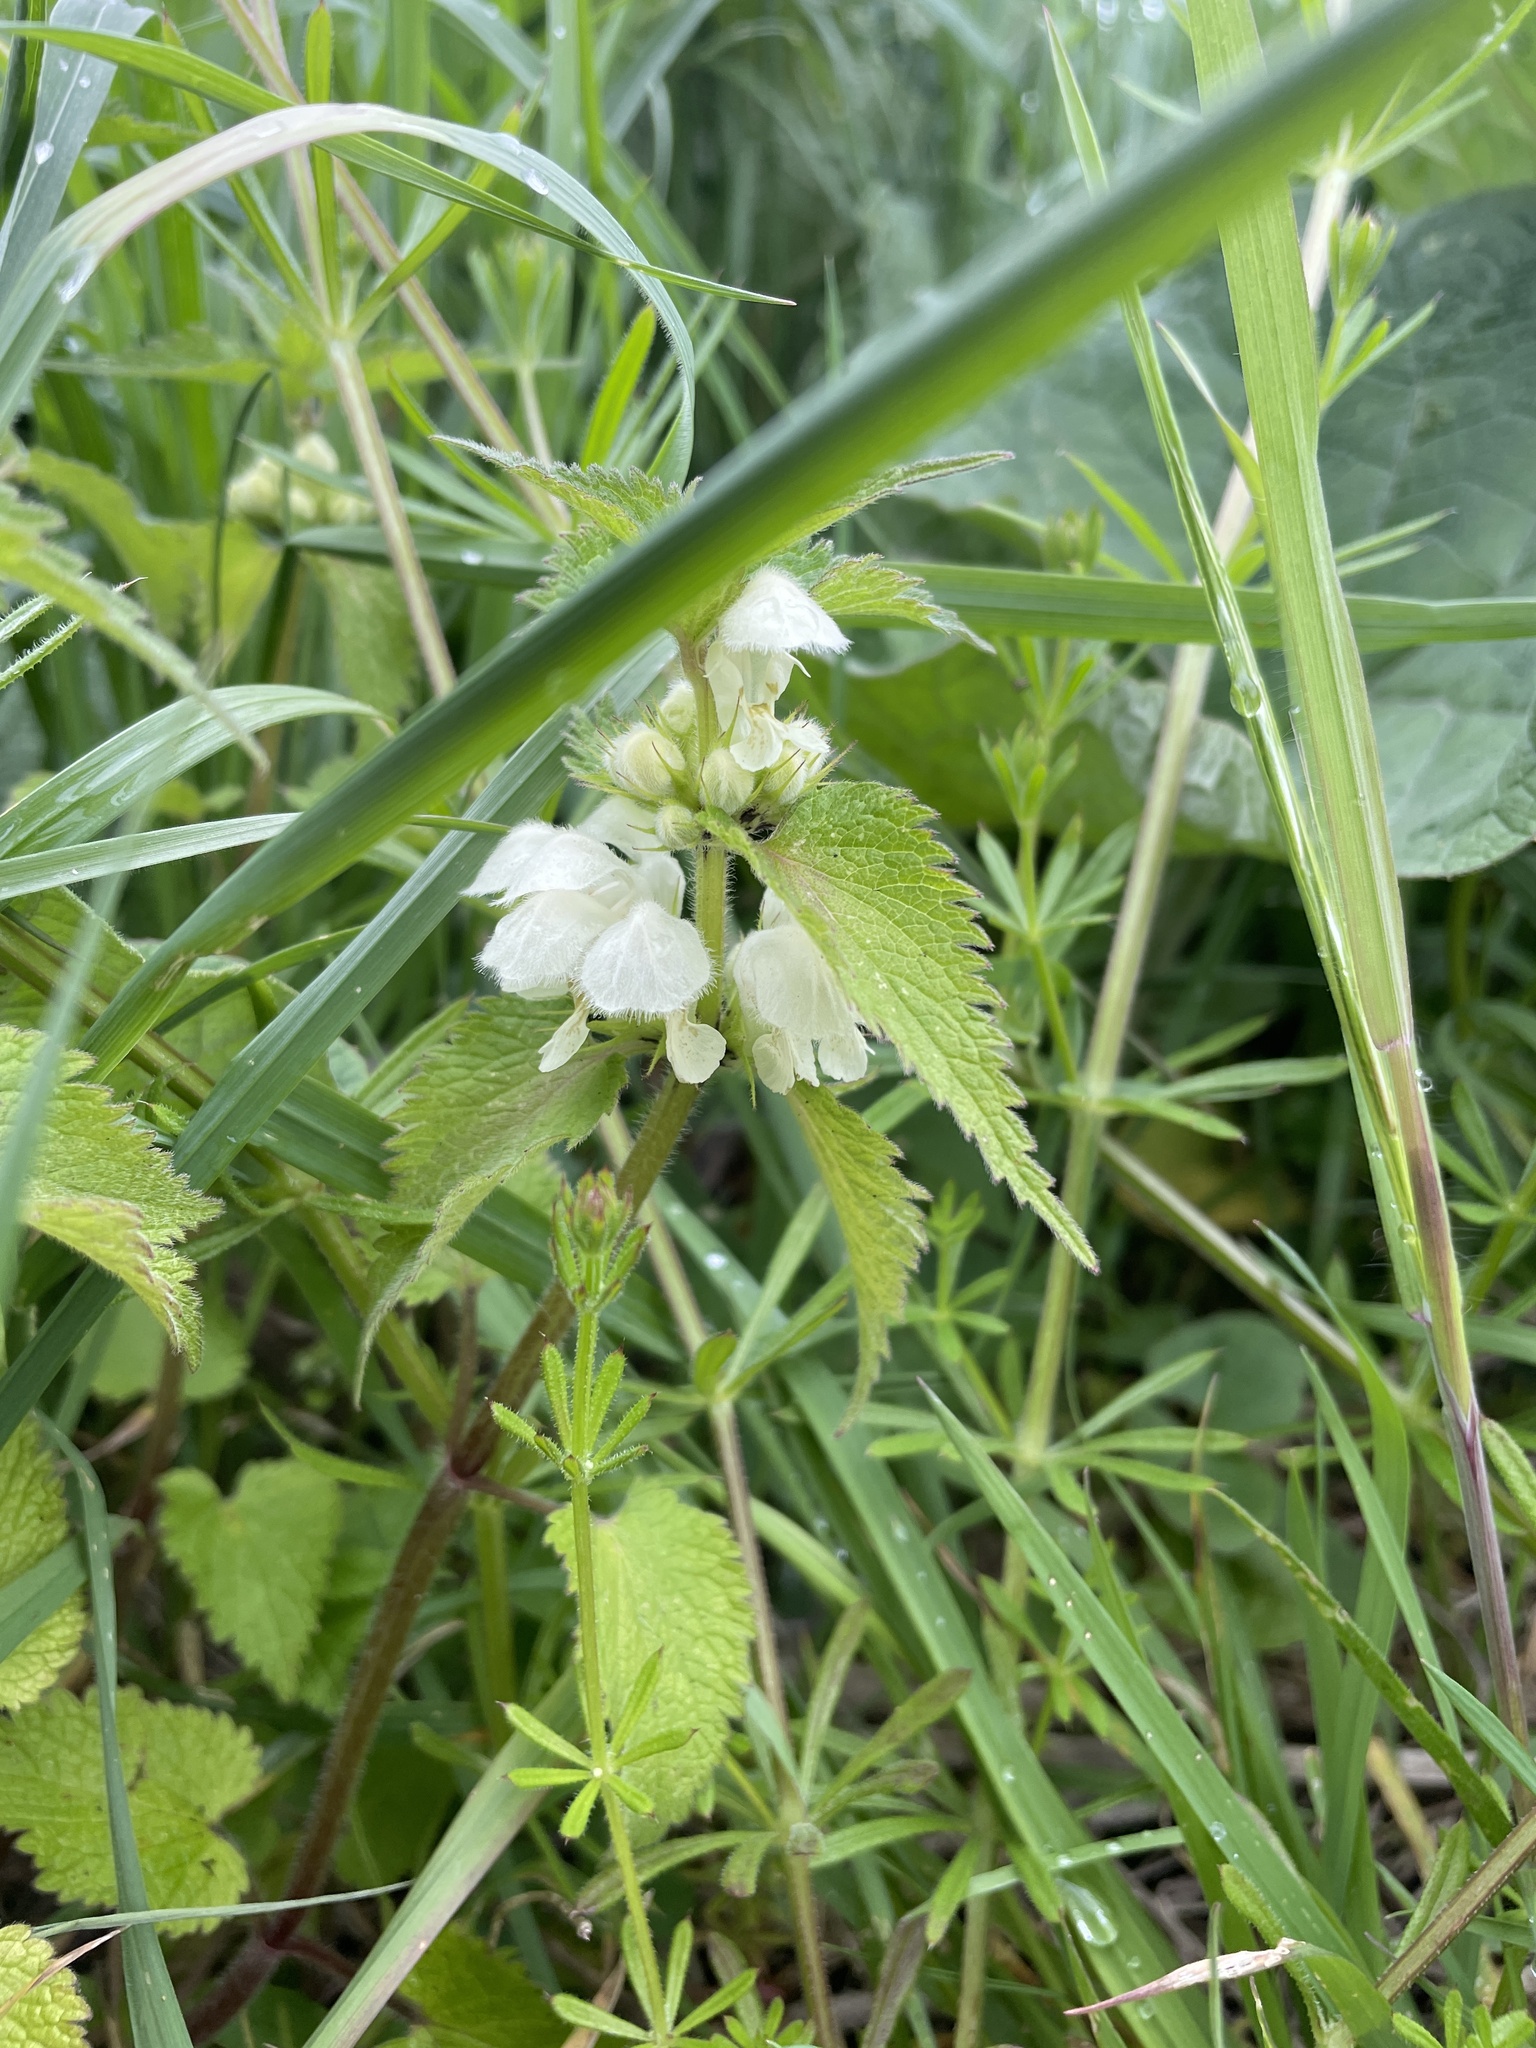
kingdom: Plantae
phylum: Tracheophyta
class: Magnoliopsida
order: Lamiales
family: Lamiaceae
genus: Lamium
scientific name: Lamium album
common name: White dead-nettle
